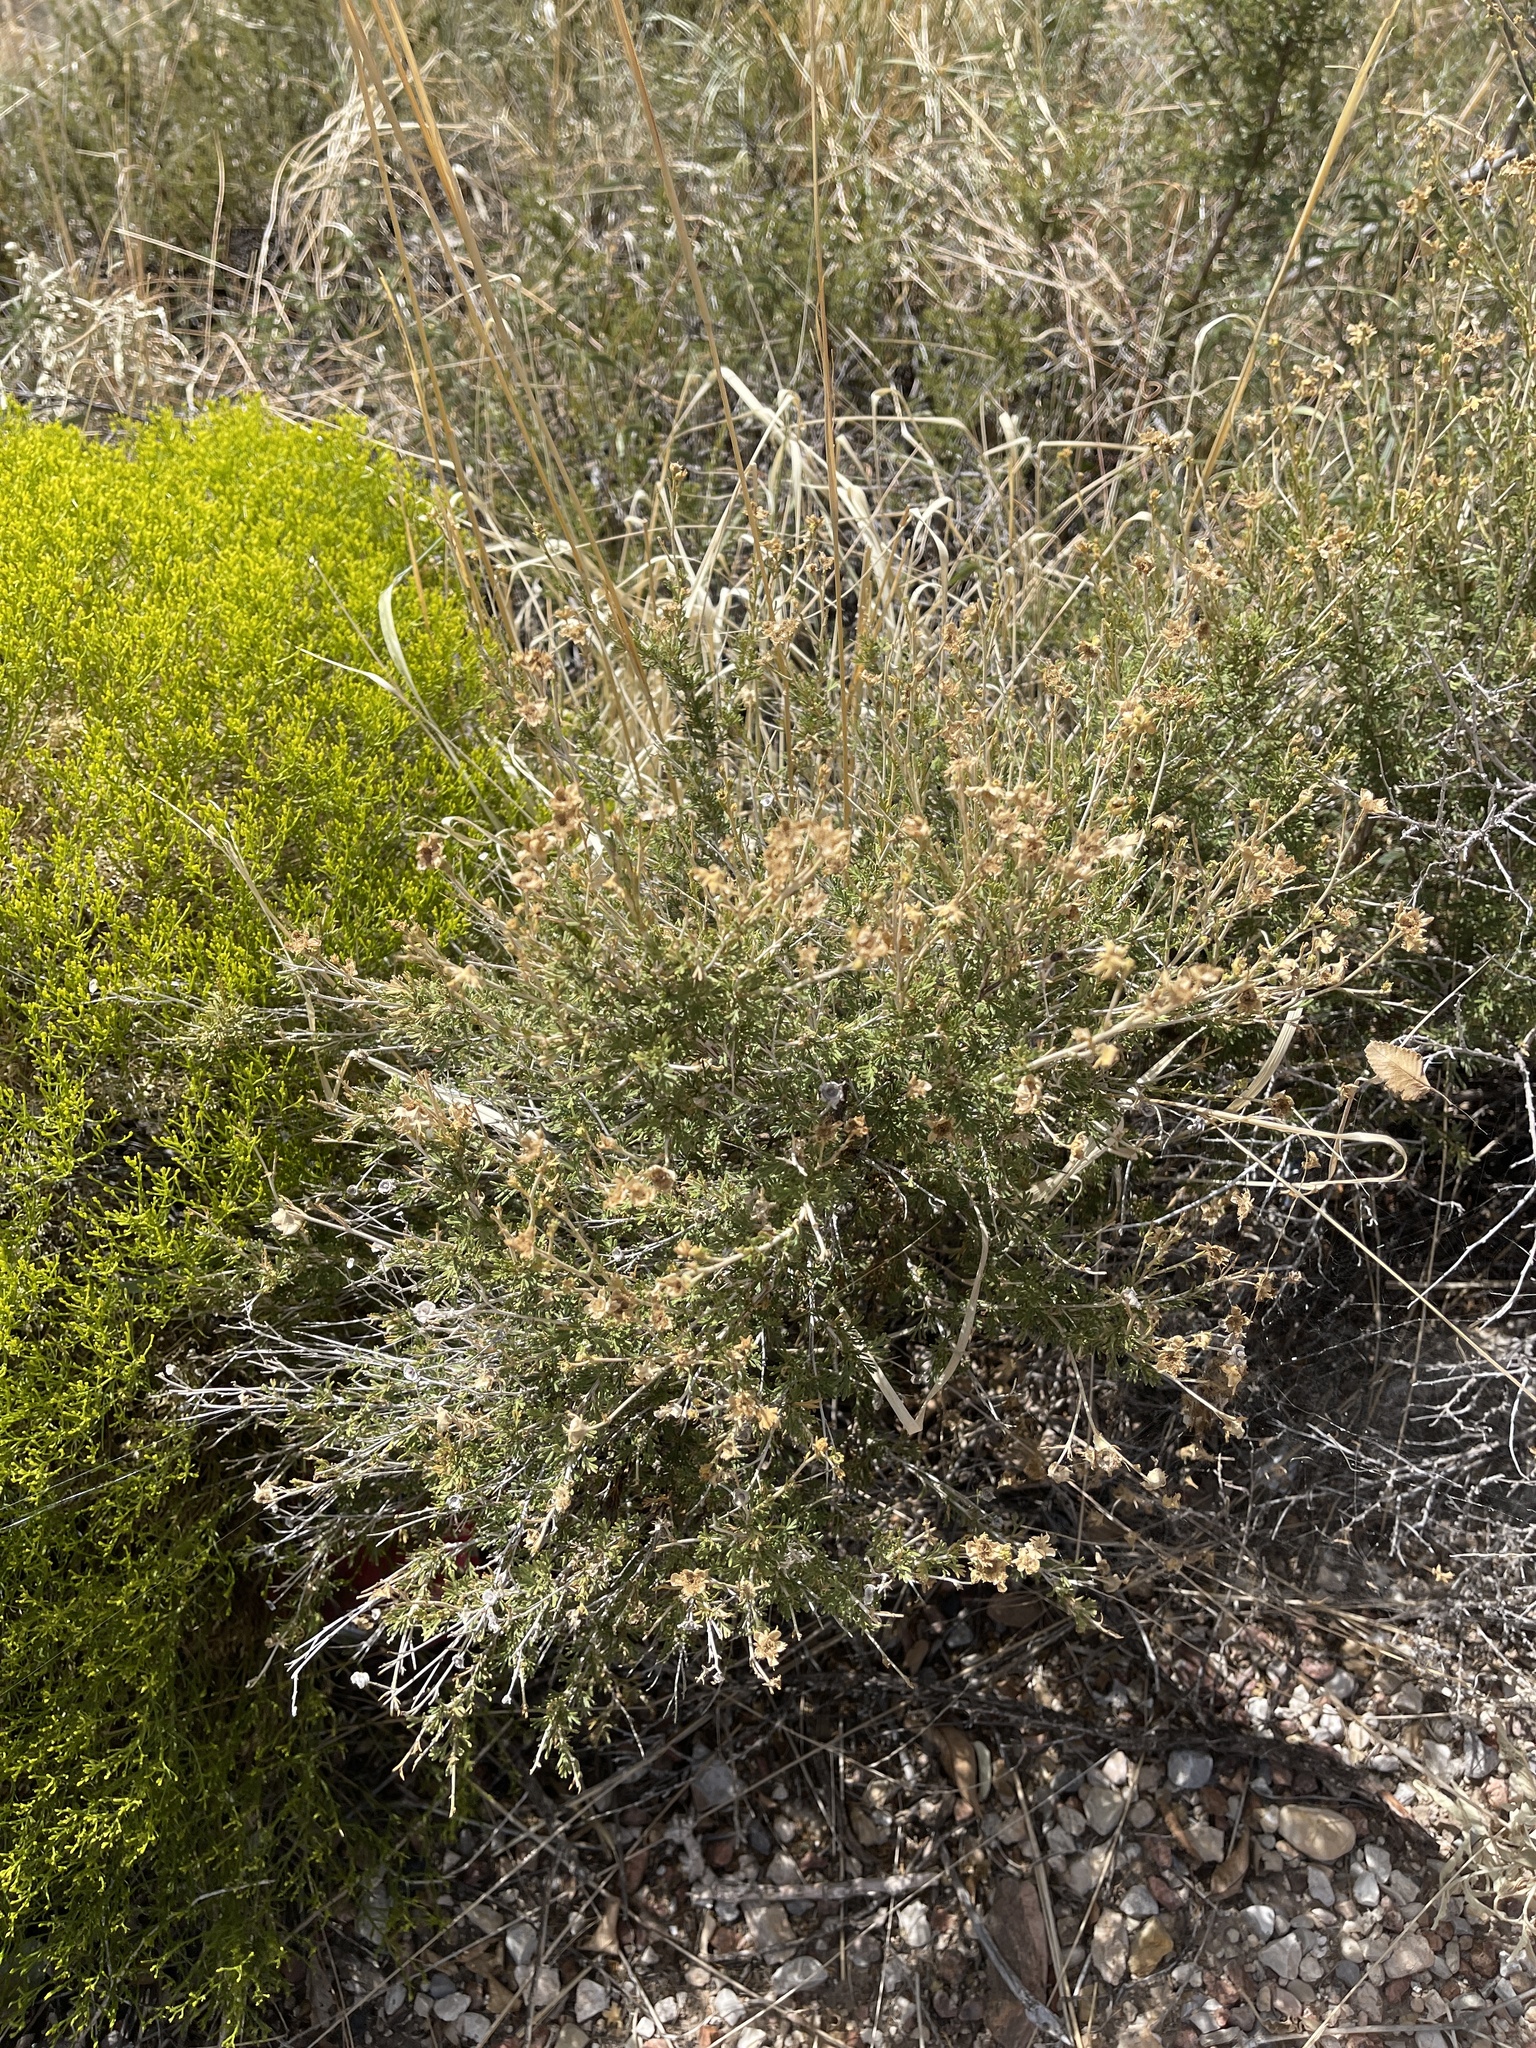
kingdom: Plantae
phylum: Tracheophyta
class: Magnoliopsida
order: Rosales
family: Rosaceae
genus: Fallugia
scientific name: Fallugia paradoxa
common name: Apache-plume
